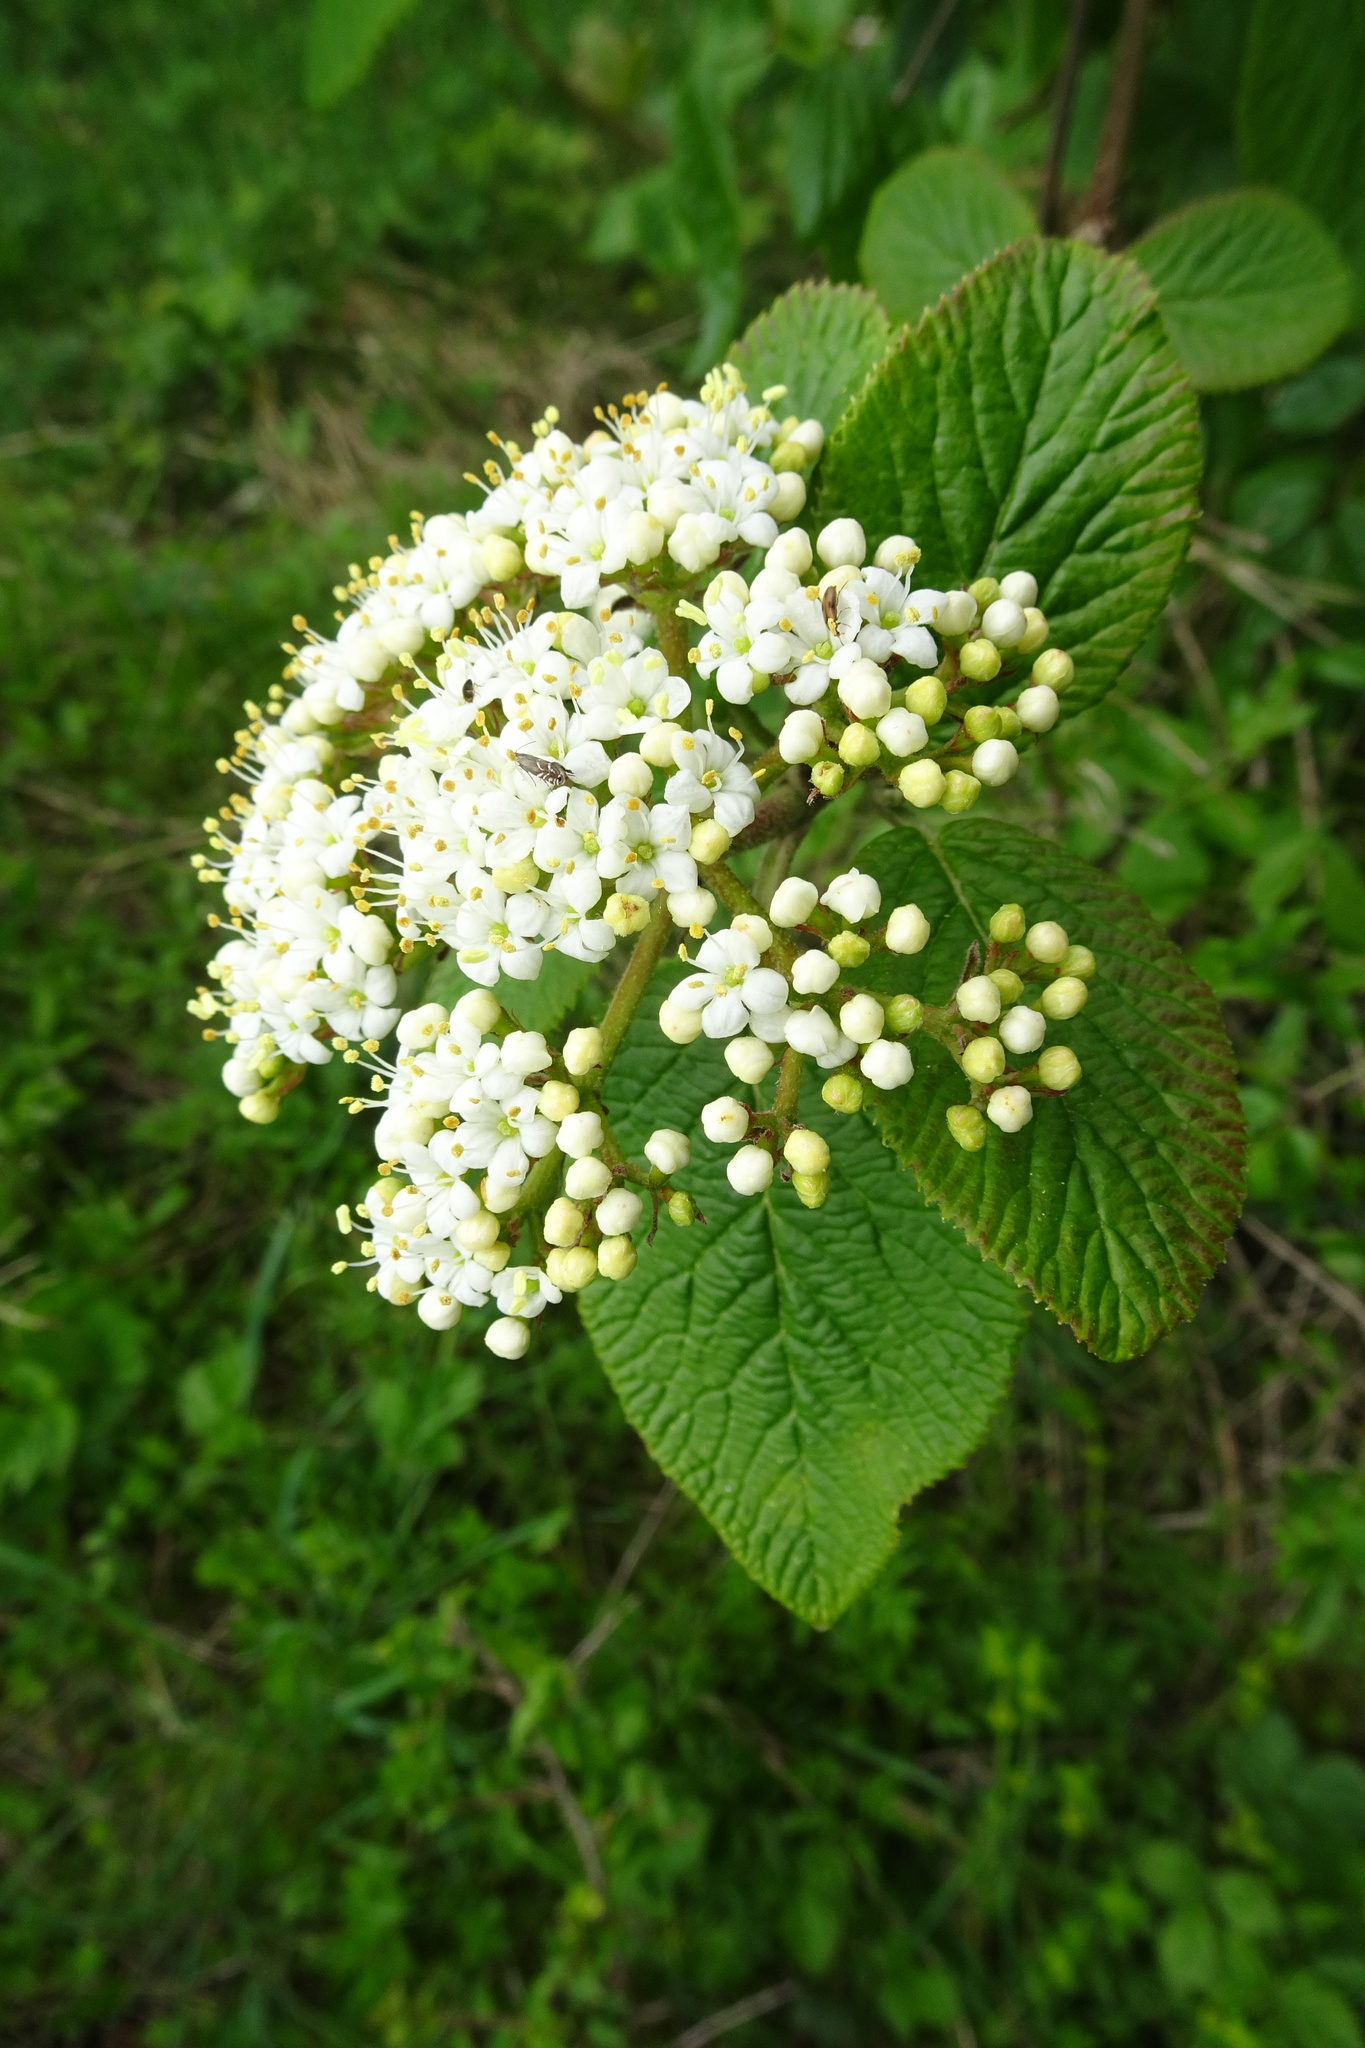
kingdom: Plantae
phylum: Tracheophyta
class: Magnoliopsida
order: Dipsacales
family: Viburnaceae
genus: Viburnum
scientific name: Viburnum lantana
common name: Wayfaring tree
